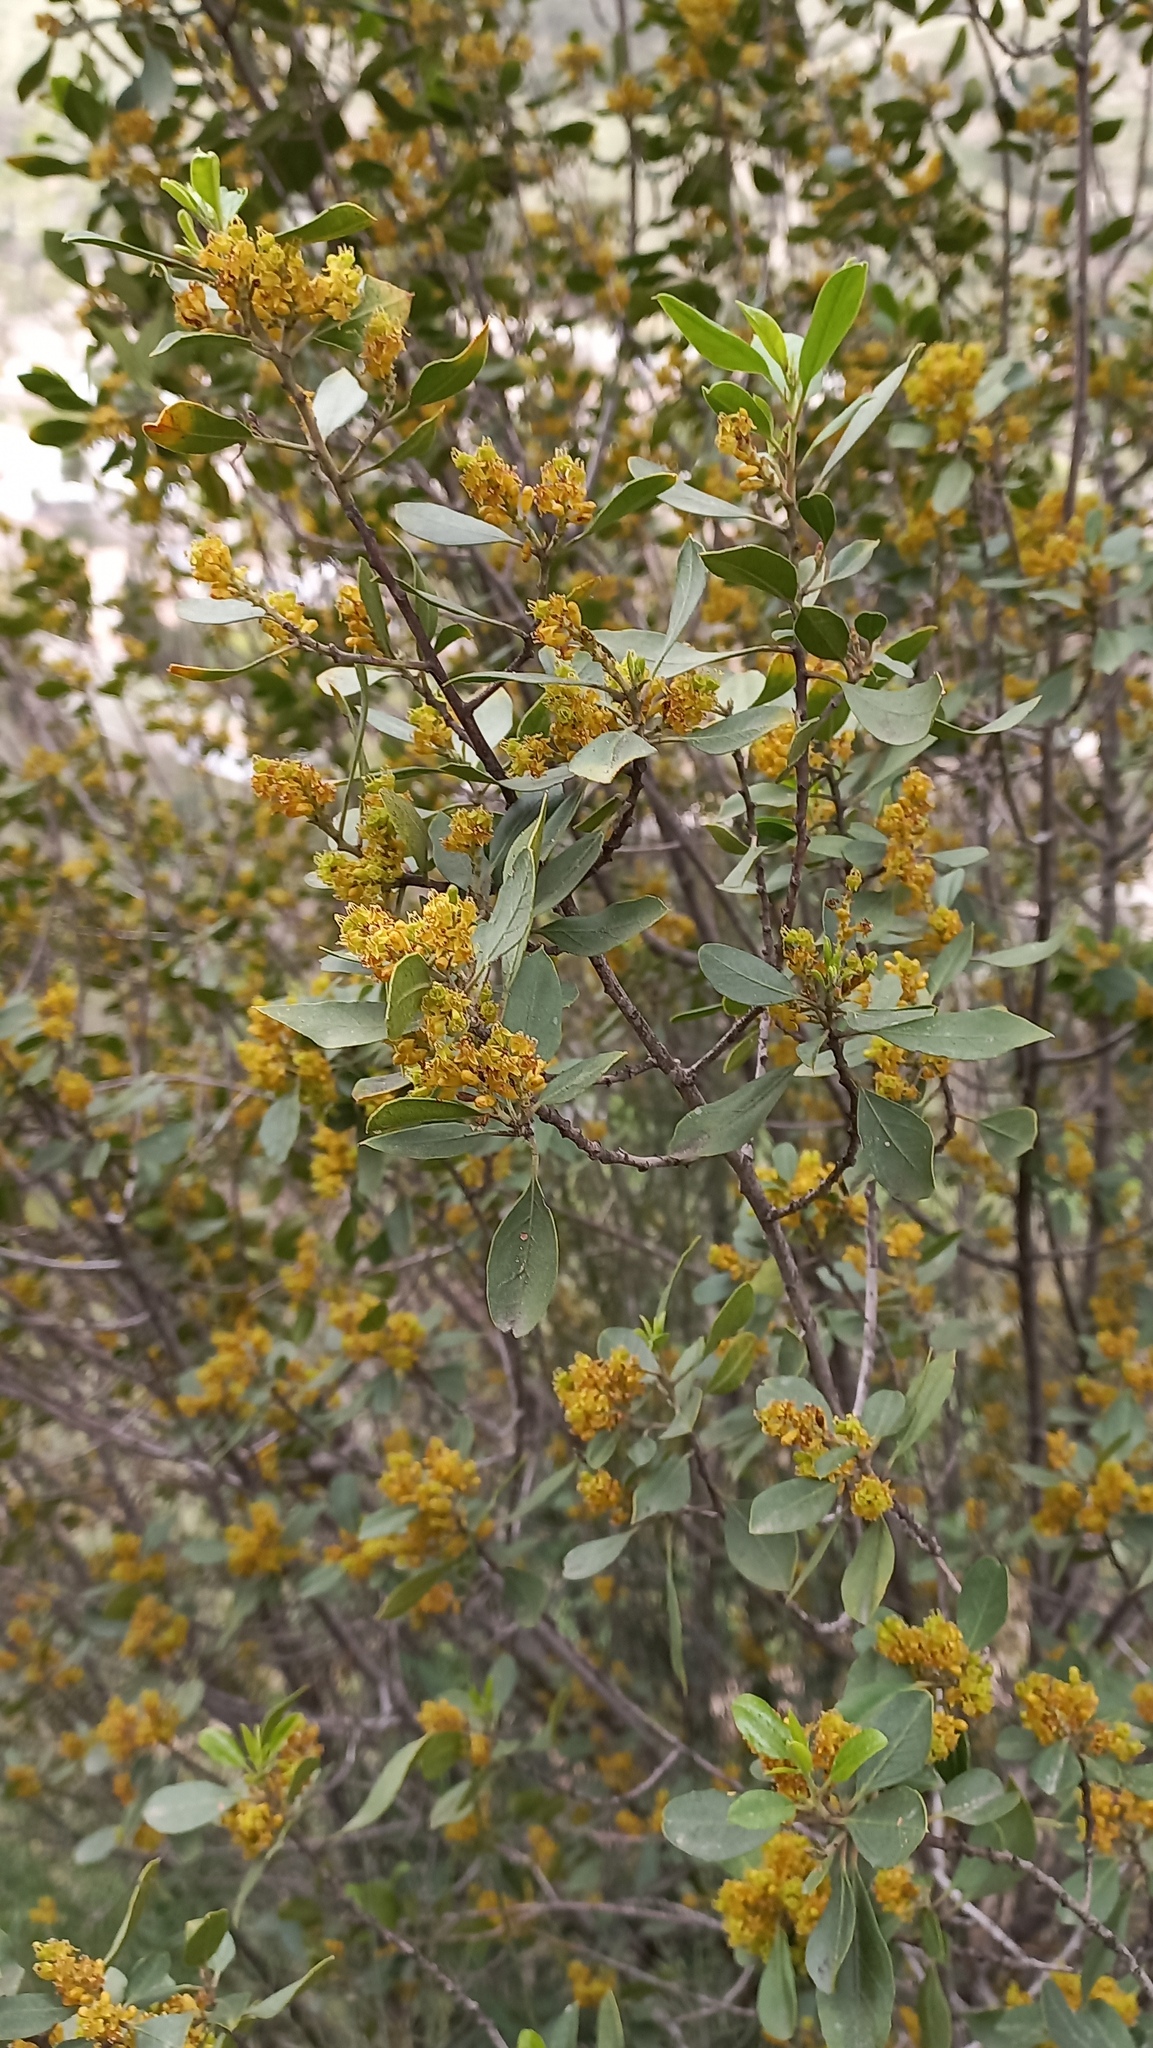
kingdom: Plantae
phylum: Tracheophyta
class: Magnoliopsida
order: Rosales
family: Rhamnaceae
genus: Rhamnus
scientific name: Rhamnus alaternus
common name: Mediterranean buckthorn
